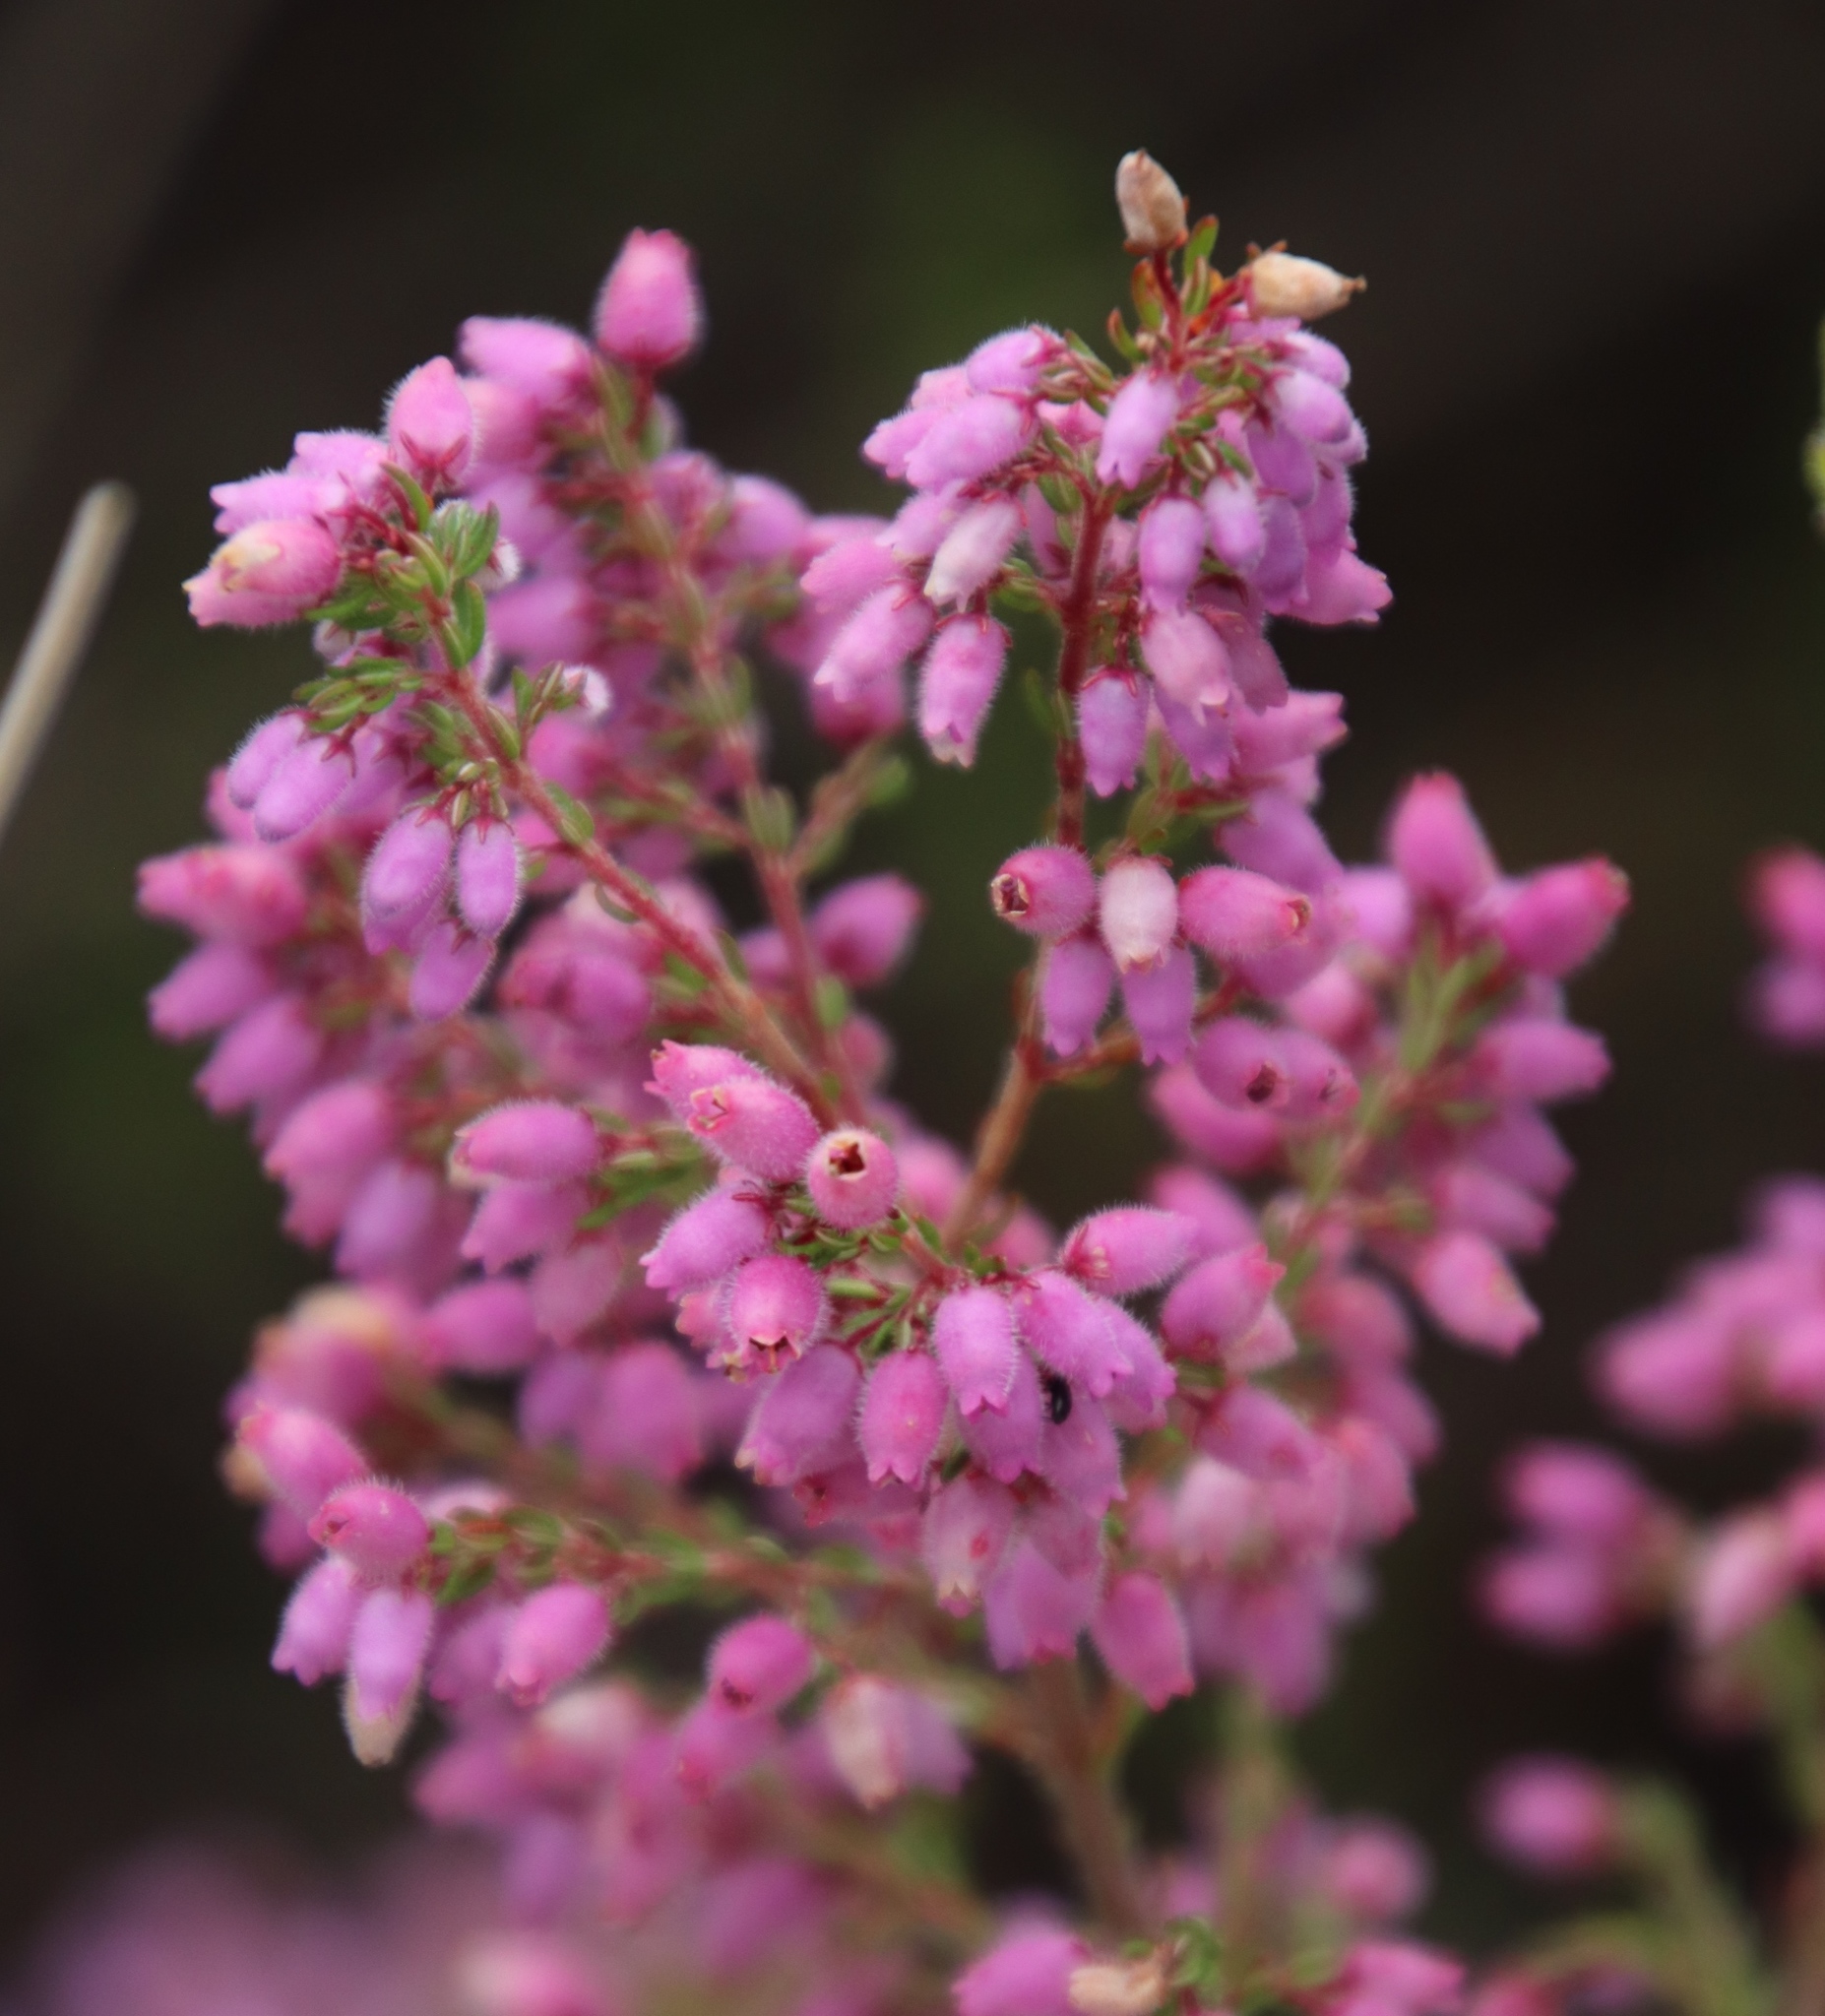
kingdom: Plantae
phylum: Tracheophyta
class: Magnoliopsida
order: Ericales
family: Ericaceae
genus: Erica
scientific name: Erica hirtiflora
